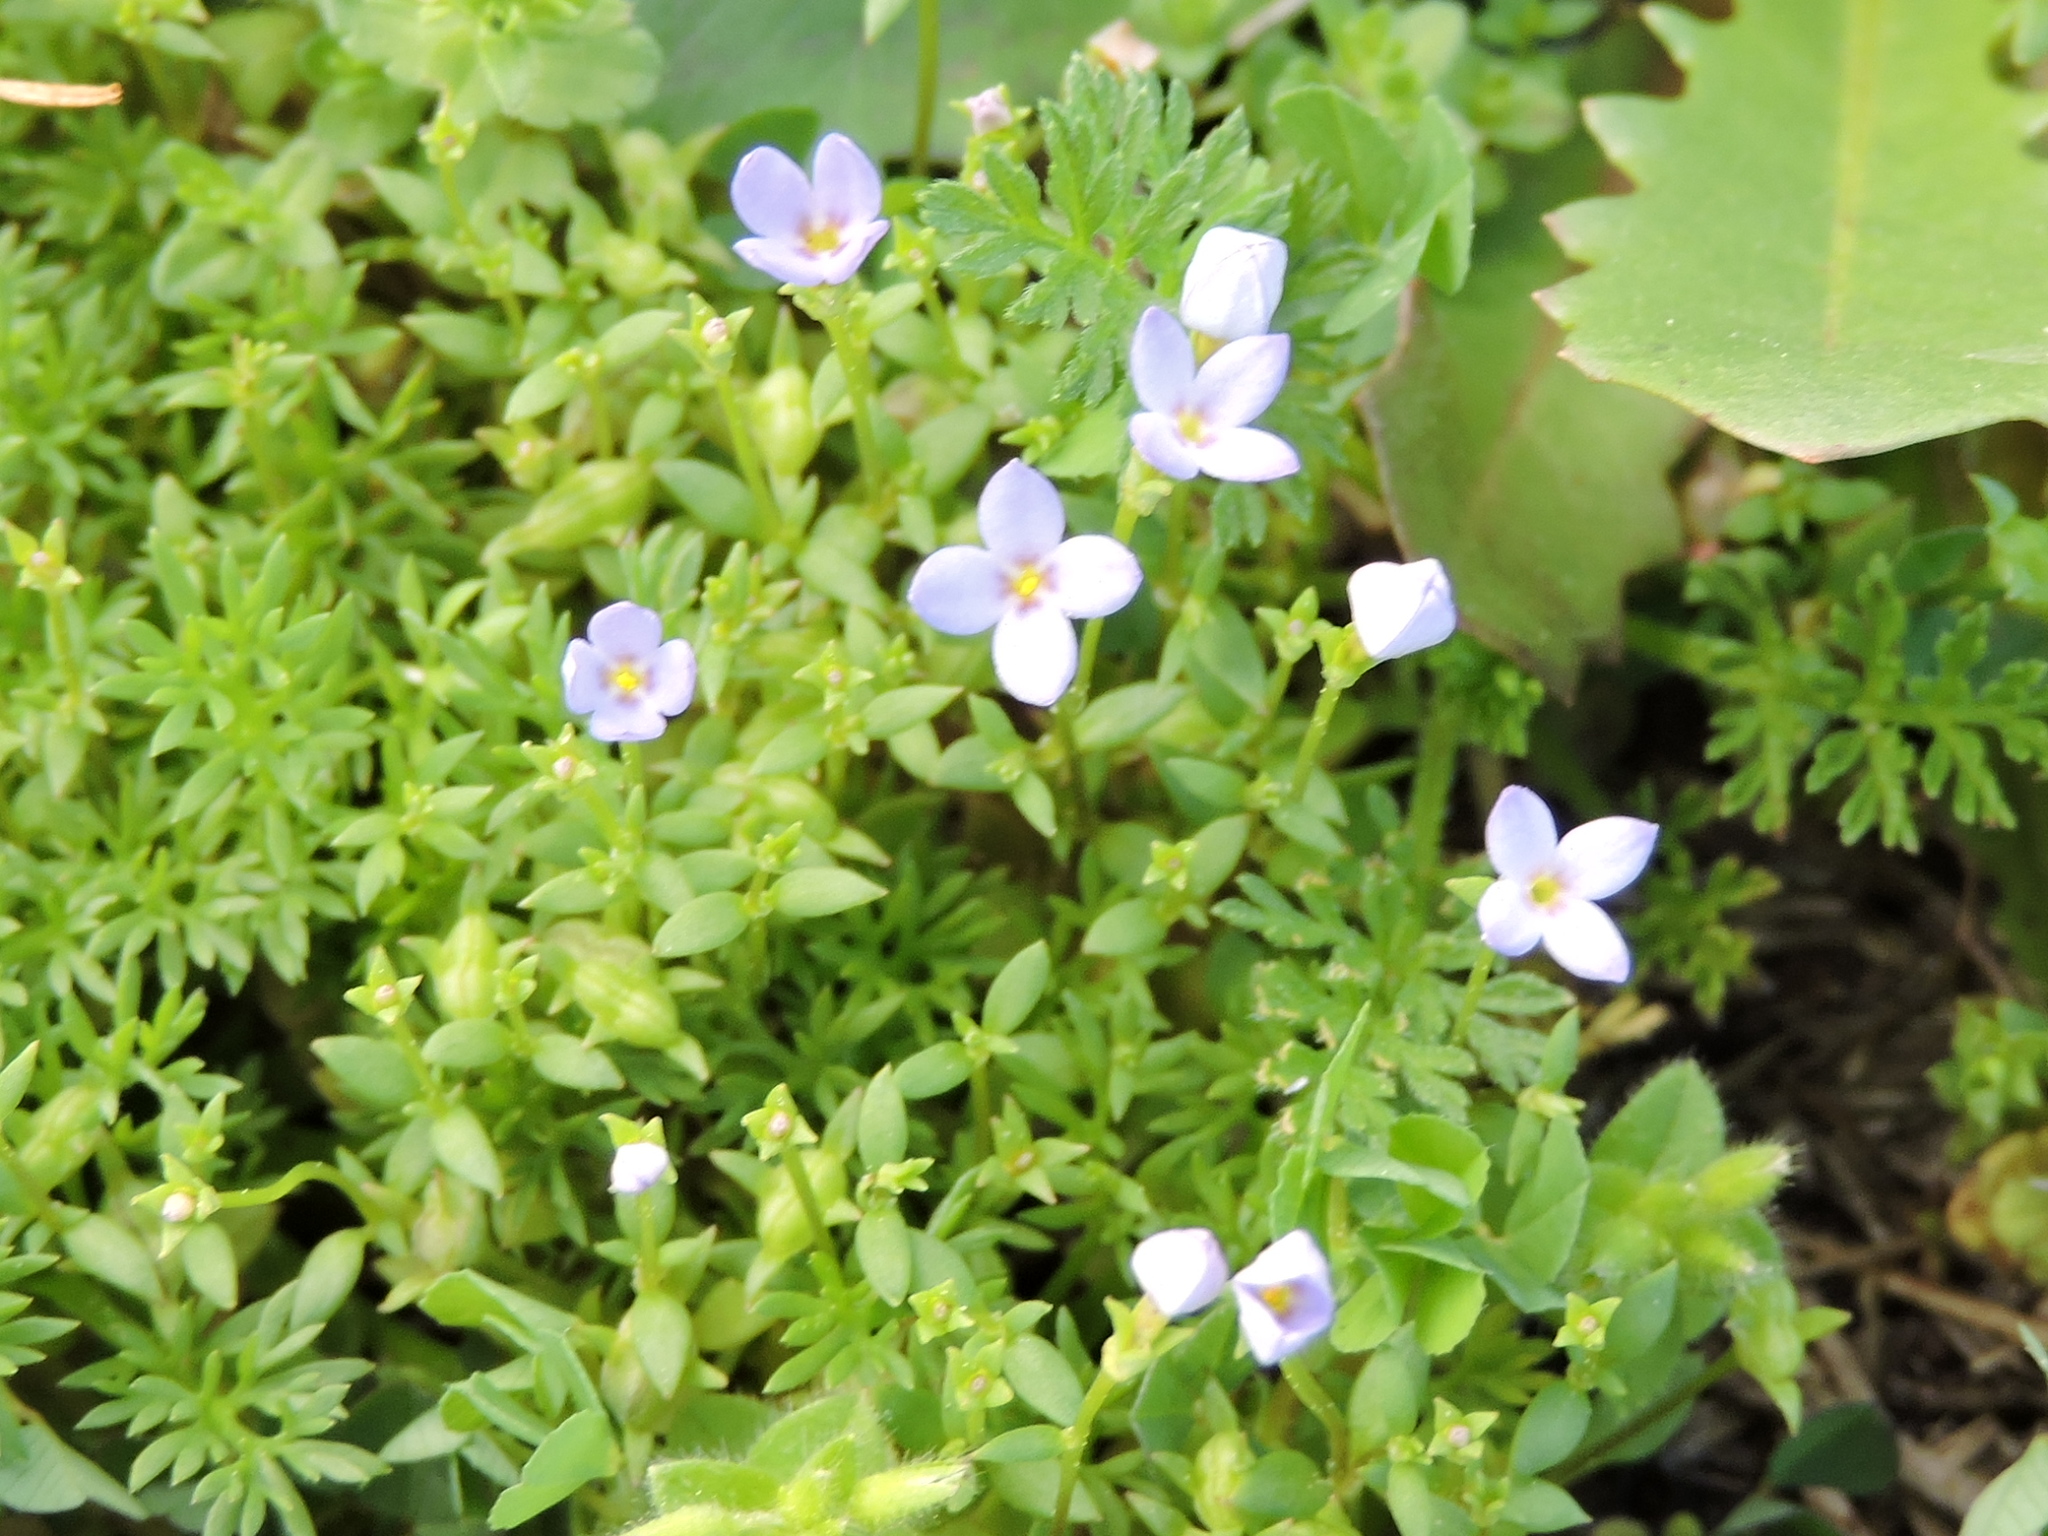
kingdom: Plantae
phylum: Tracheophyta
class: Magnoliopsida
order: Gentianales
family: Rubiaceae
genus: Houstonia
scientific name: Houstonia pusilla
